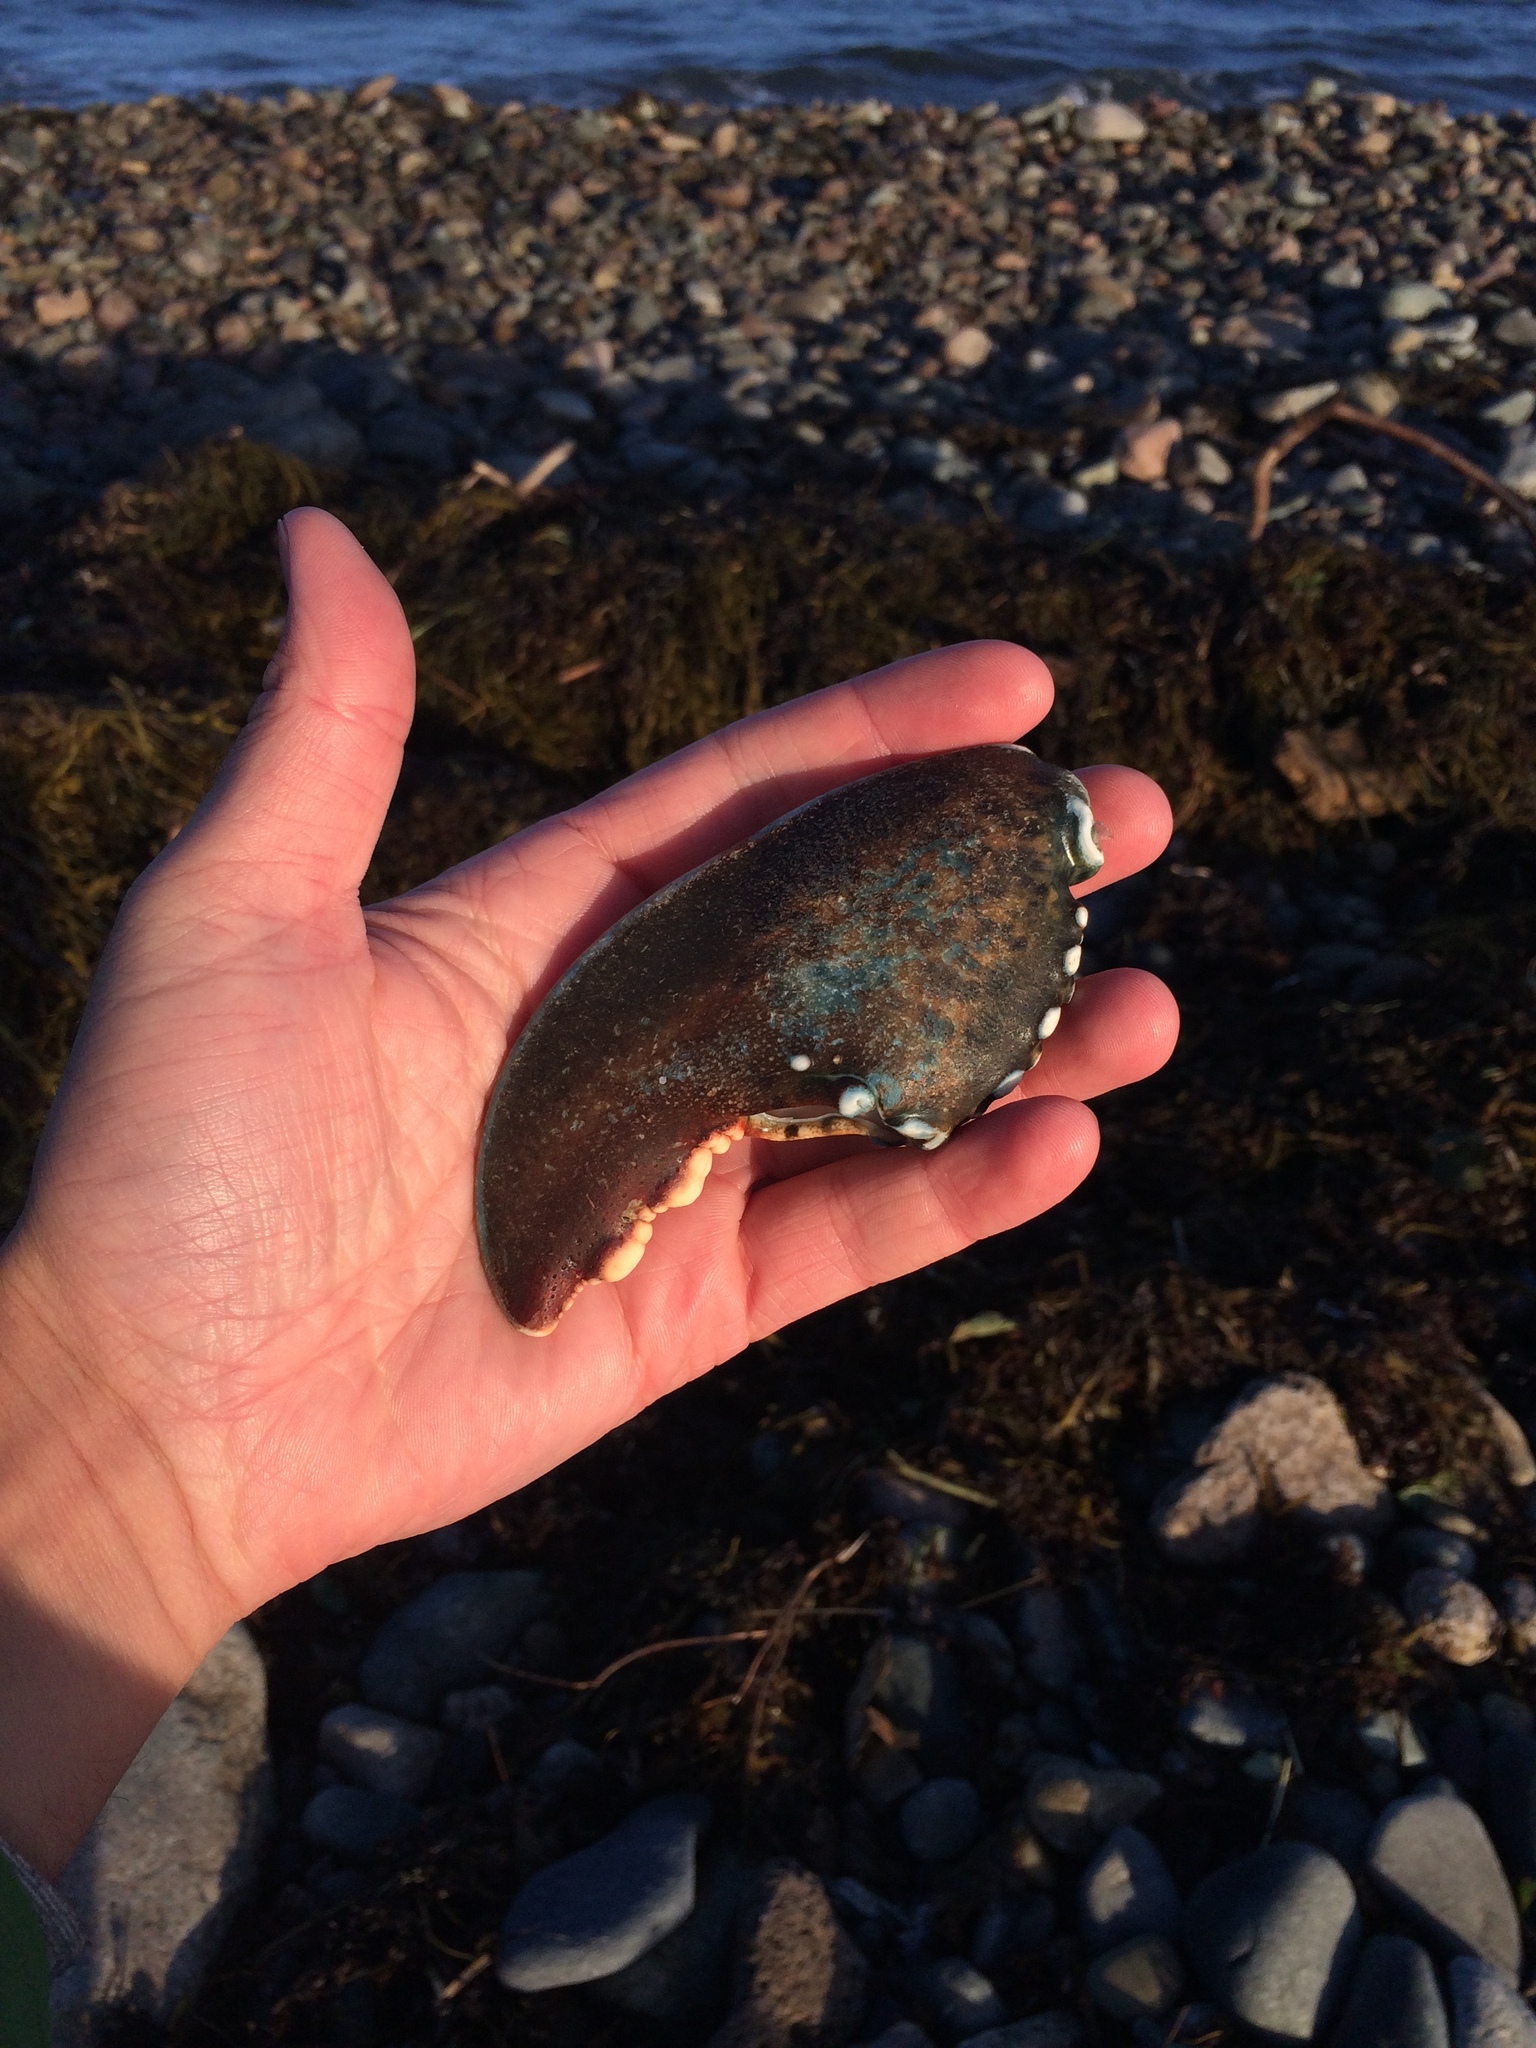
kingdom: Animalia
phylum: Arthropoda
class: Malacostraca
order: Decapoda
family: Nephropidae
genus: Homarus
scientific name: Homarus americanus
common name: American lobster
